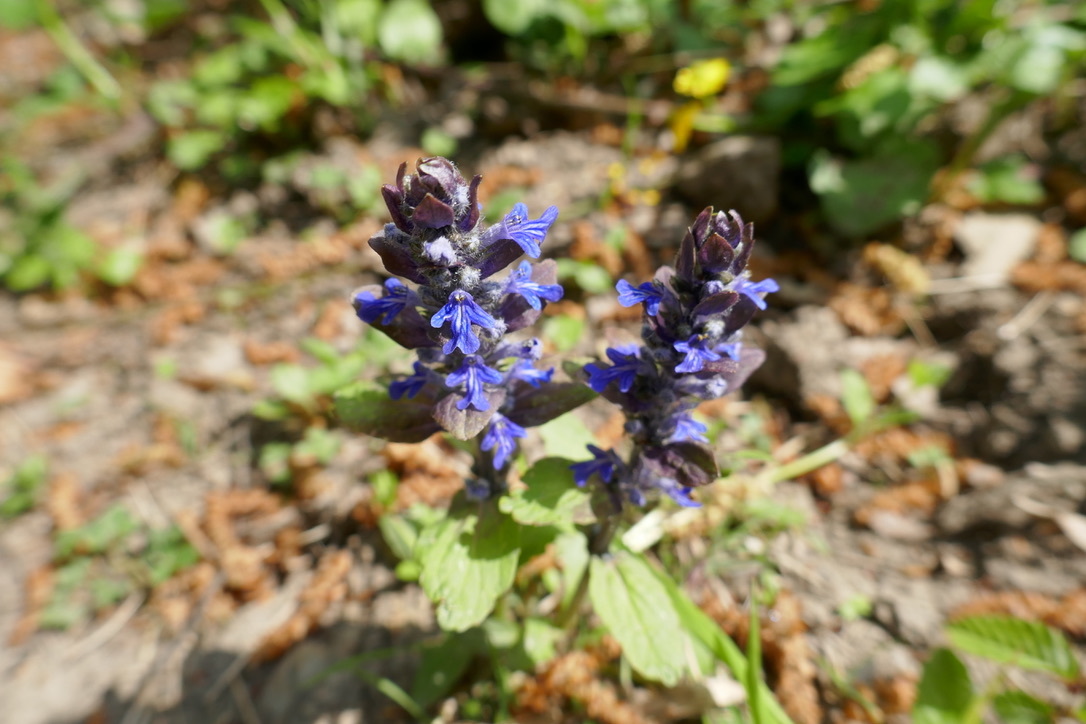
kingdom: Plantae
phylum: Tracheophyta
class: Magnoliopsida
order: Lamiales
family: Lamiaceae
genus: Ajuga
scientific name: Ajuga reptans
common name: Bugle
